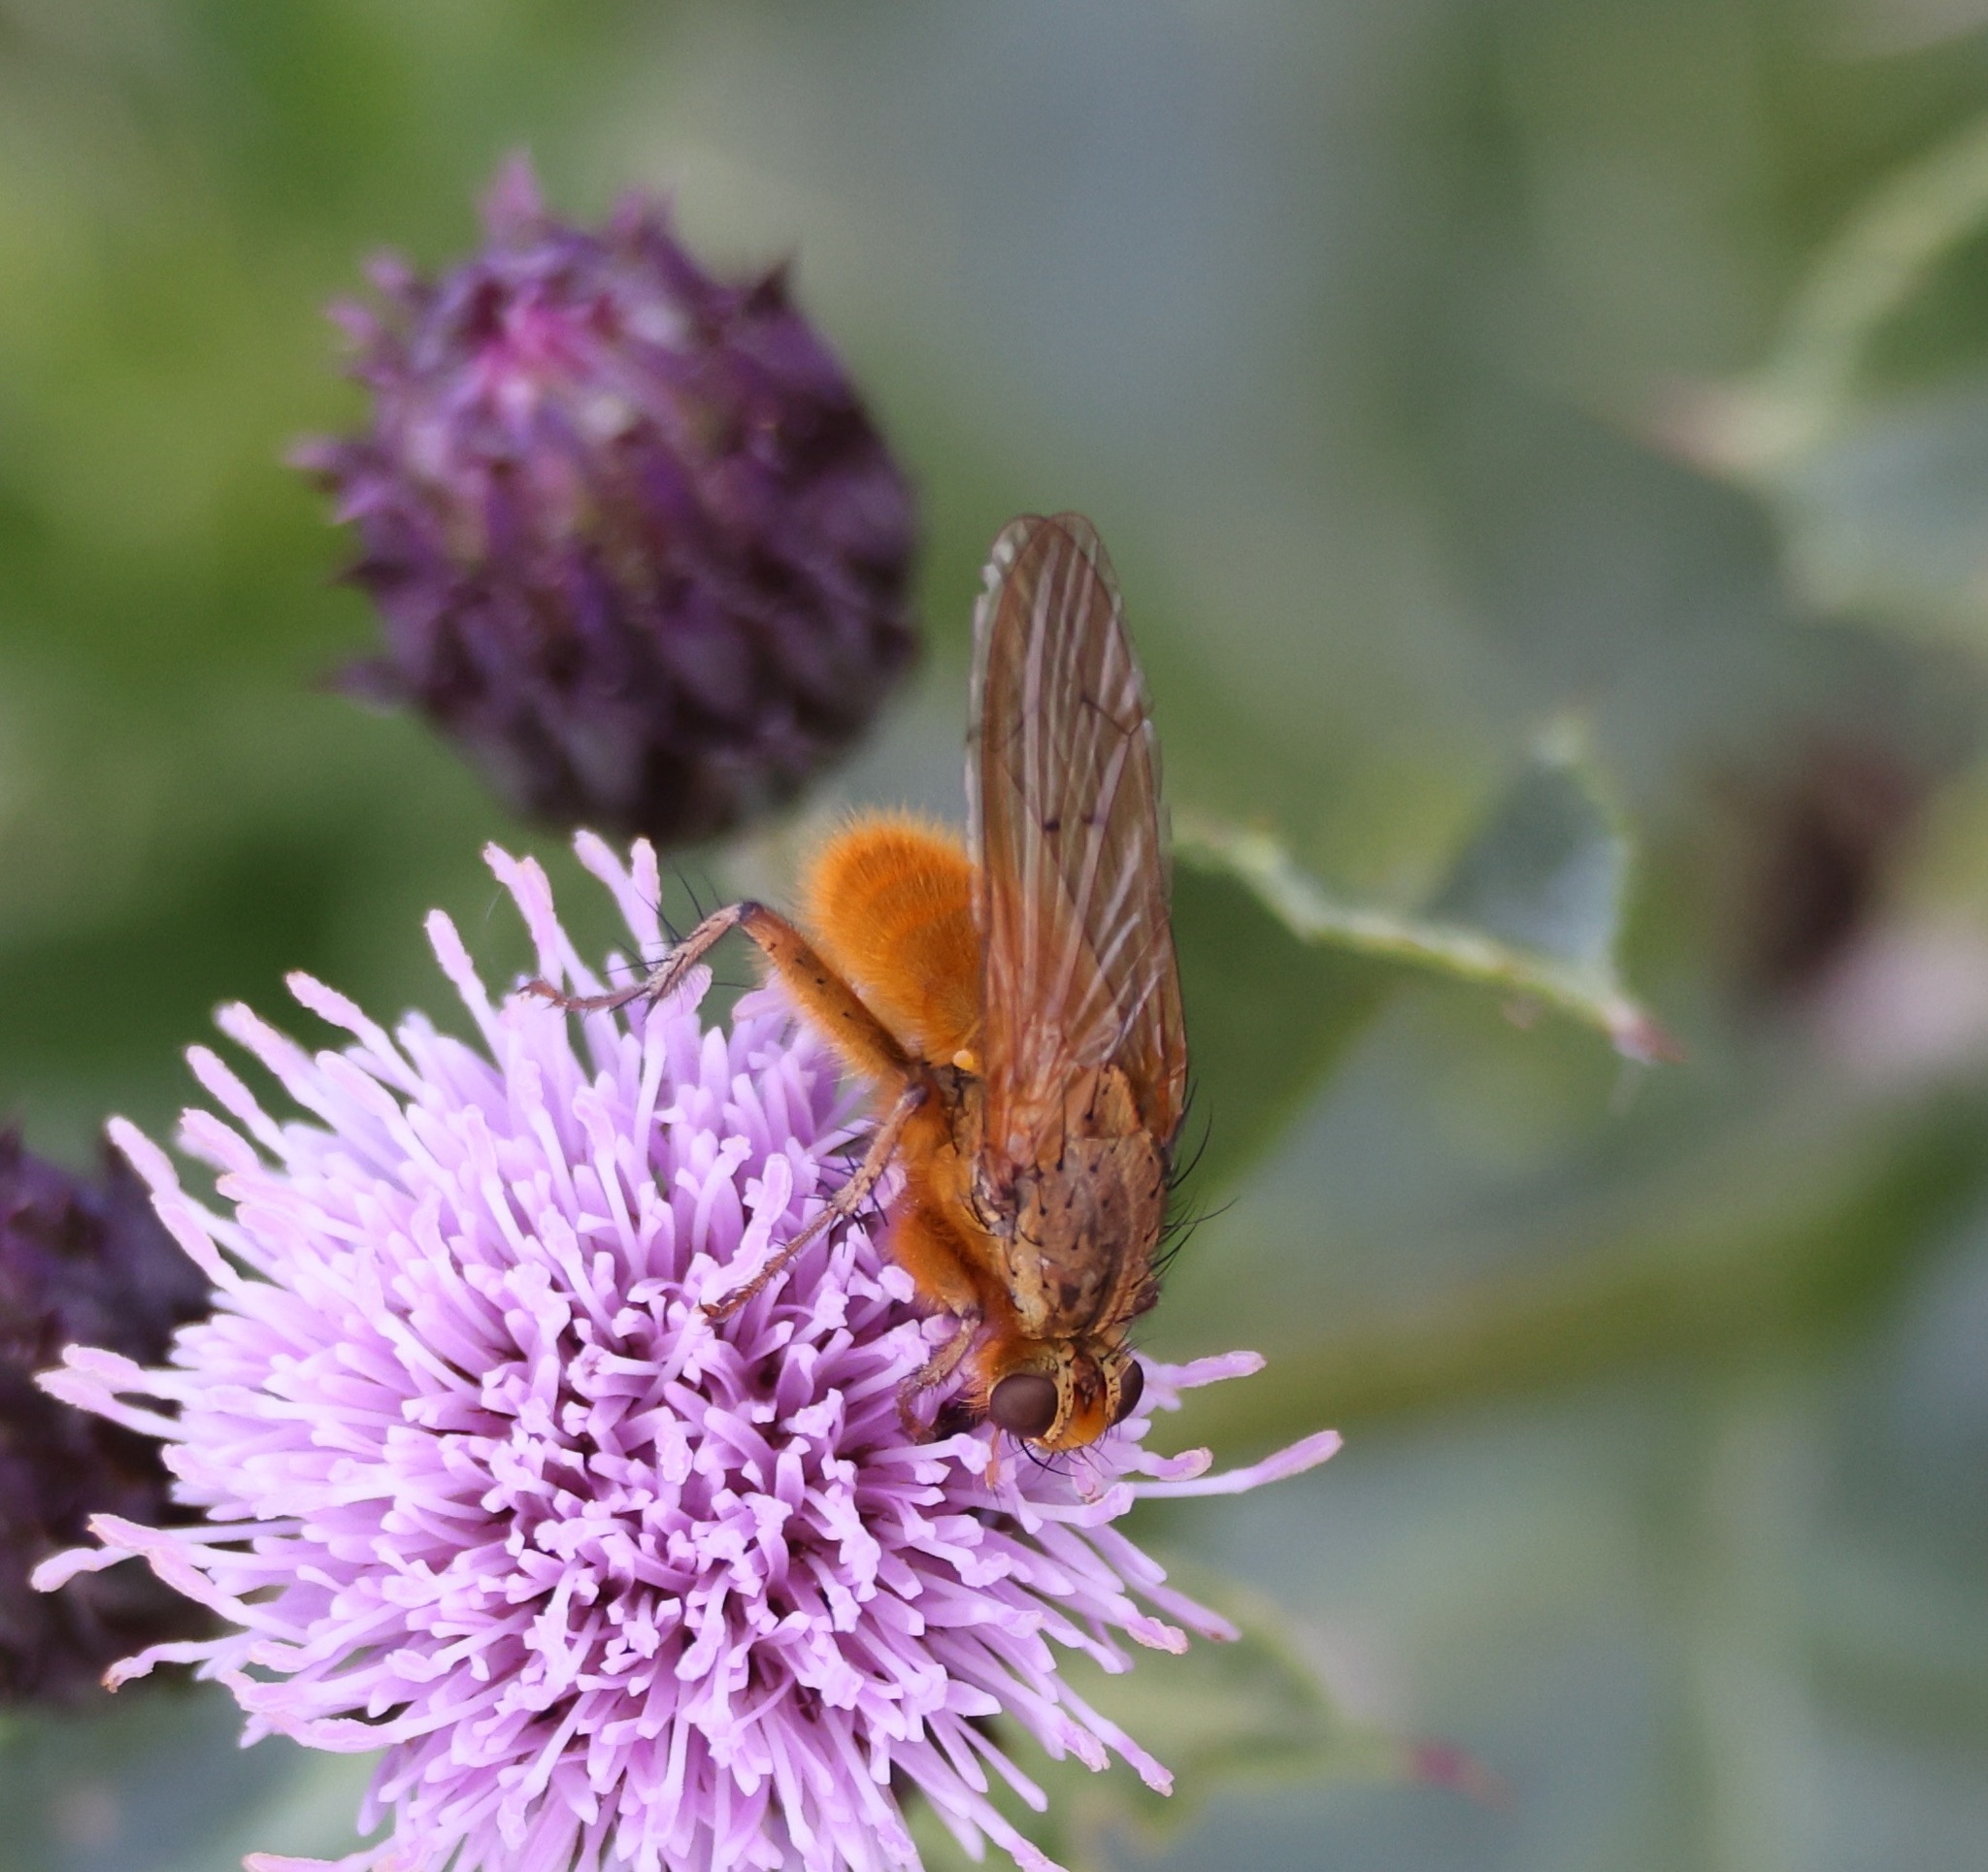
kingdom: Animalia
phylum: Arthropoda
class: Insecta
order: Diptera
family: Scathophagidae
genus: Scathophaga
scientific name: Scathophaga stercoraria
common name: Yellow dung fly
